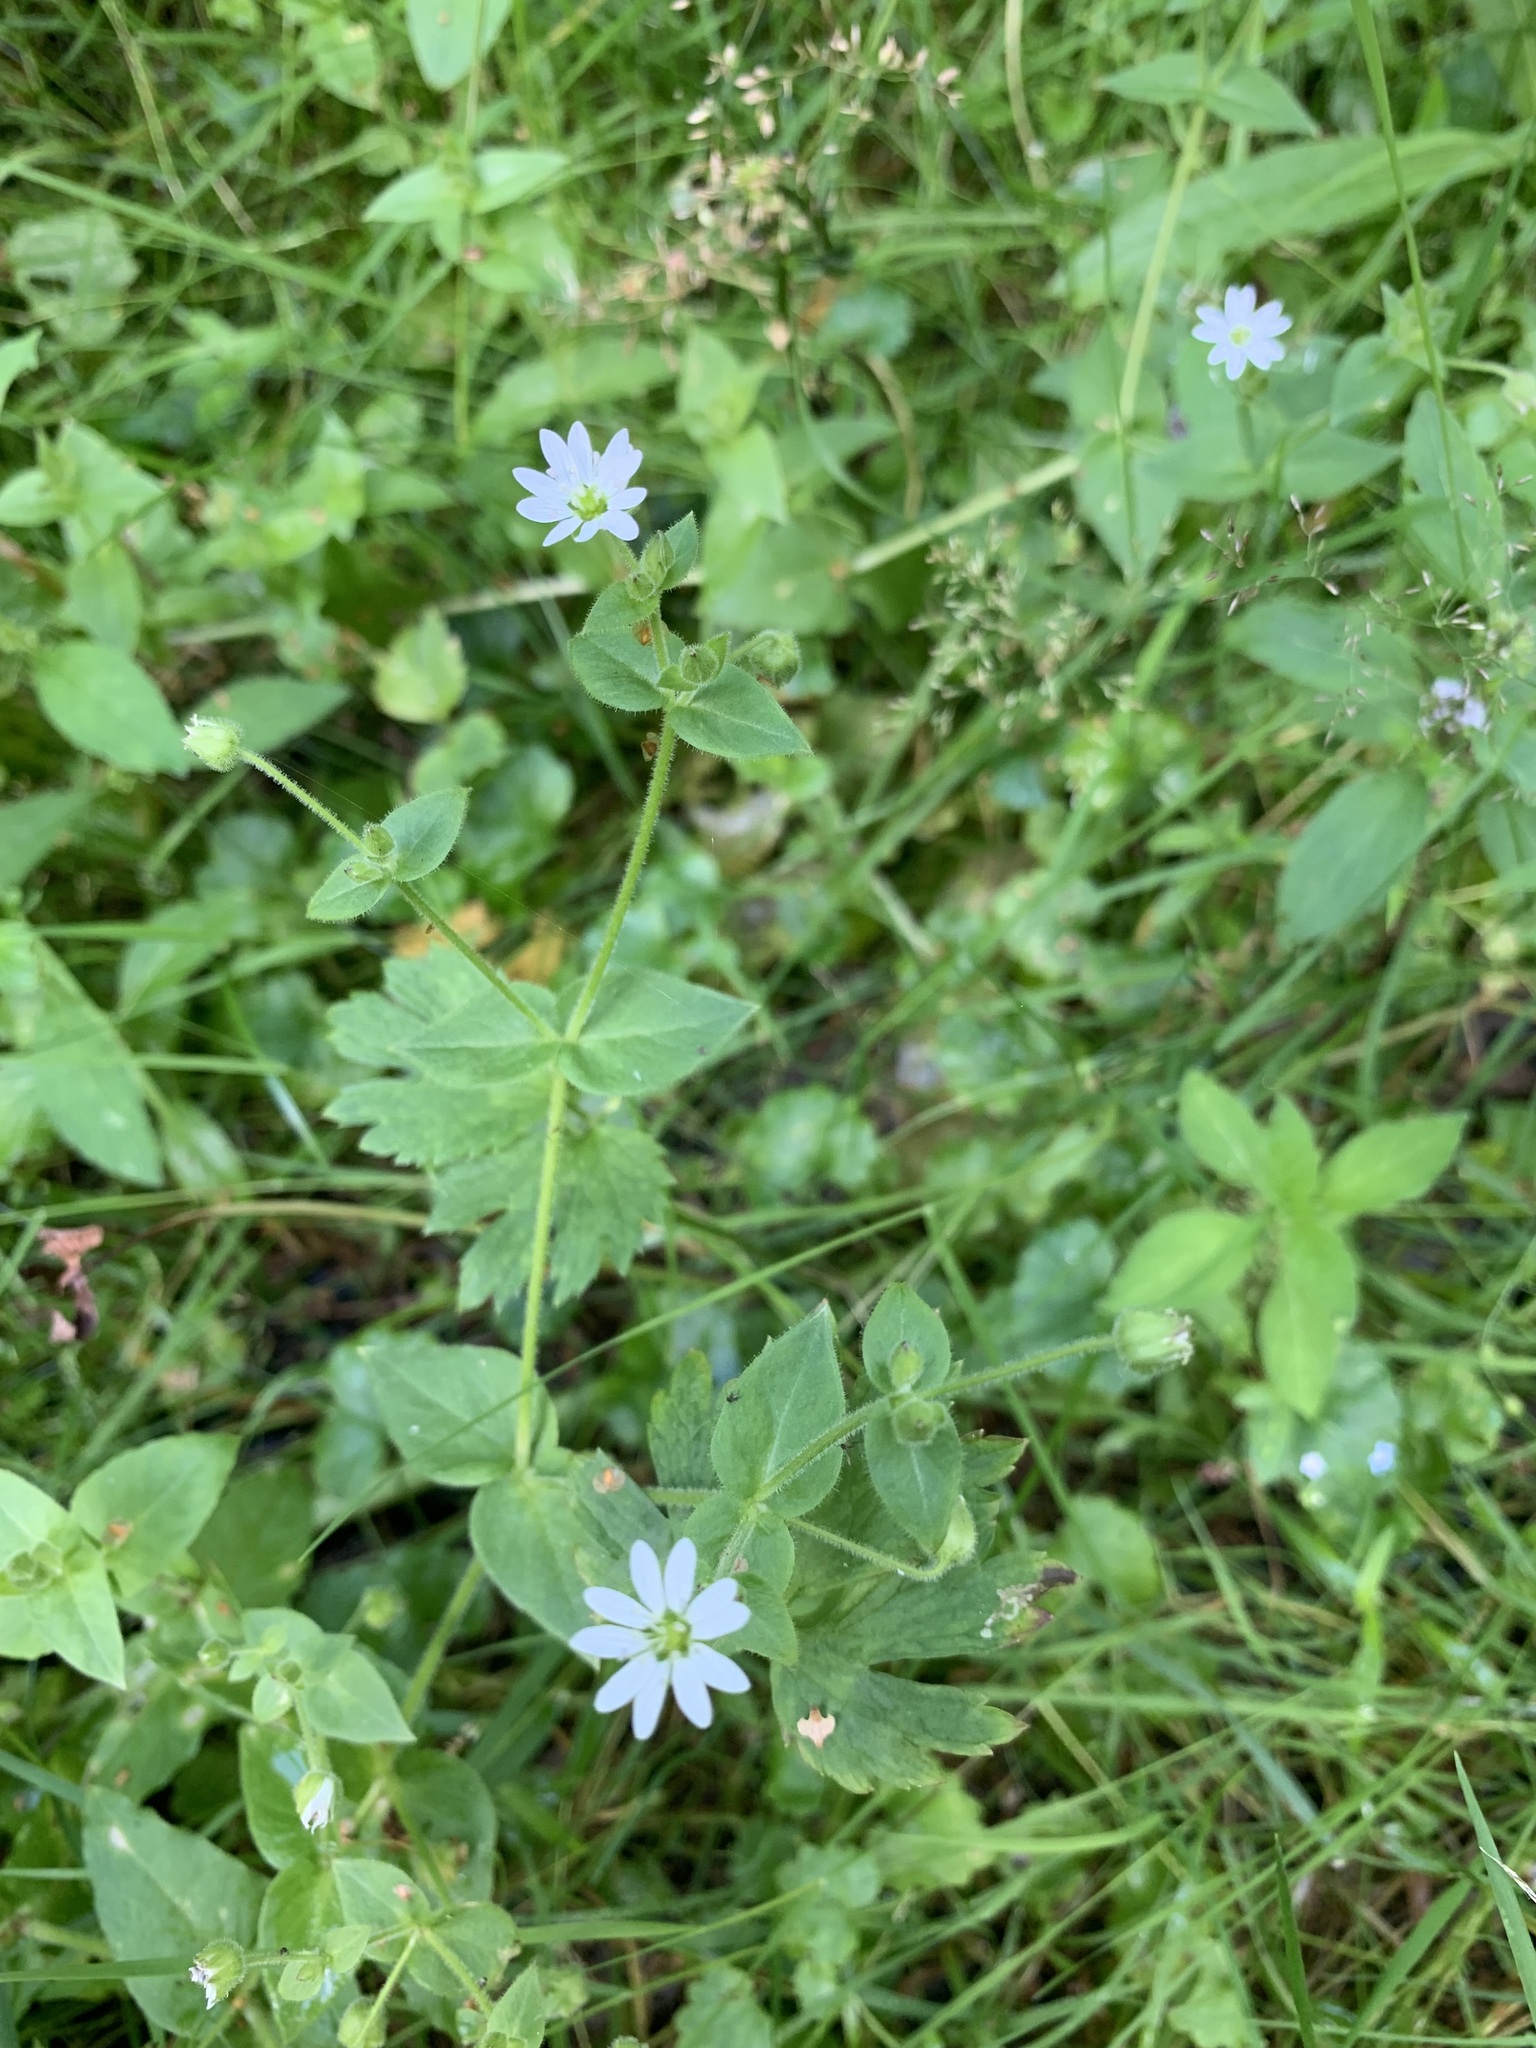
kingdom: Plantae
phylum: Tracheophyta
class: Magnoliopsida
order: Caryophyllales
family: Caryophyllaceae
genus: Stellaria
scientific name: Stellaria aquatica
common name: Water chickweed
